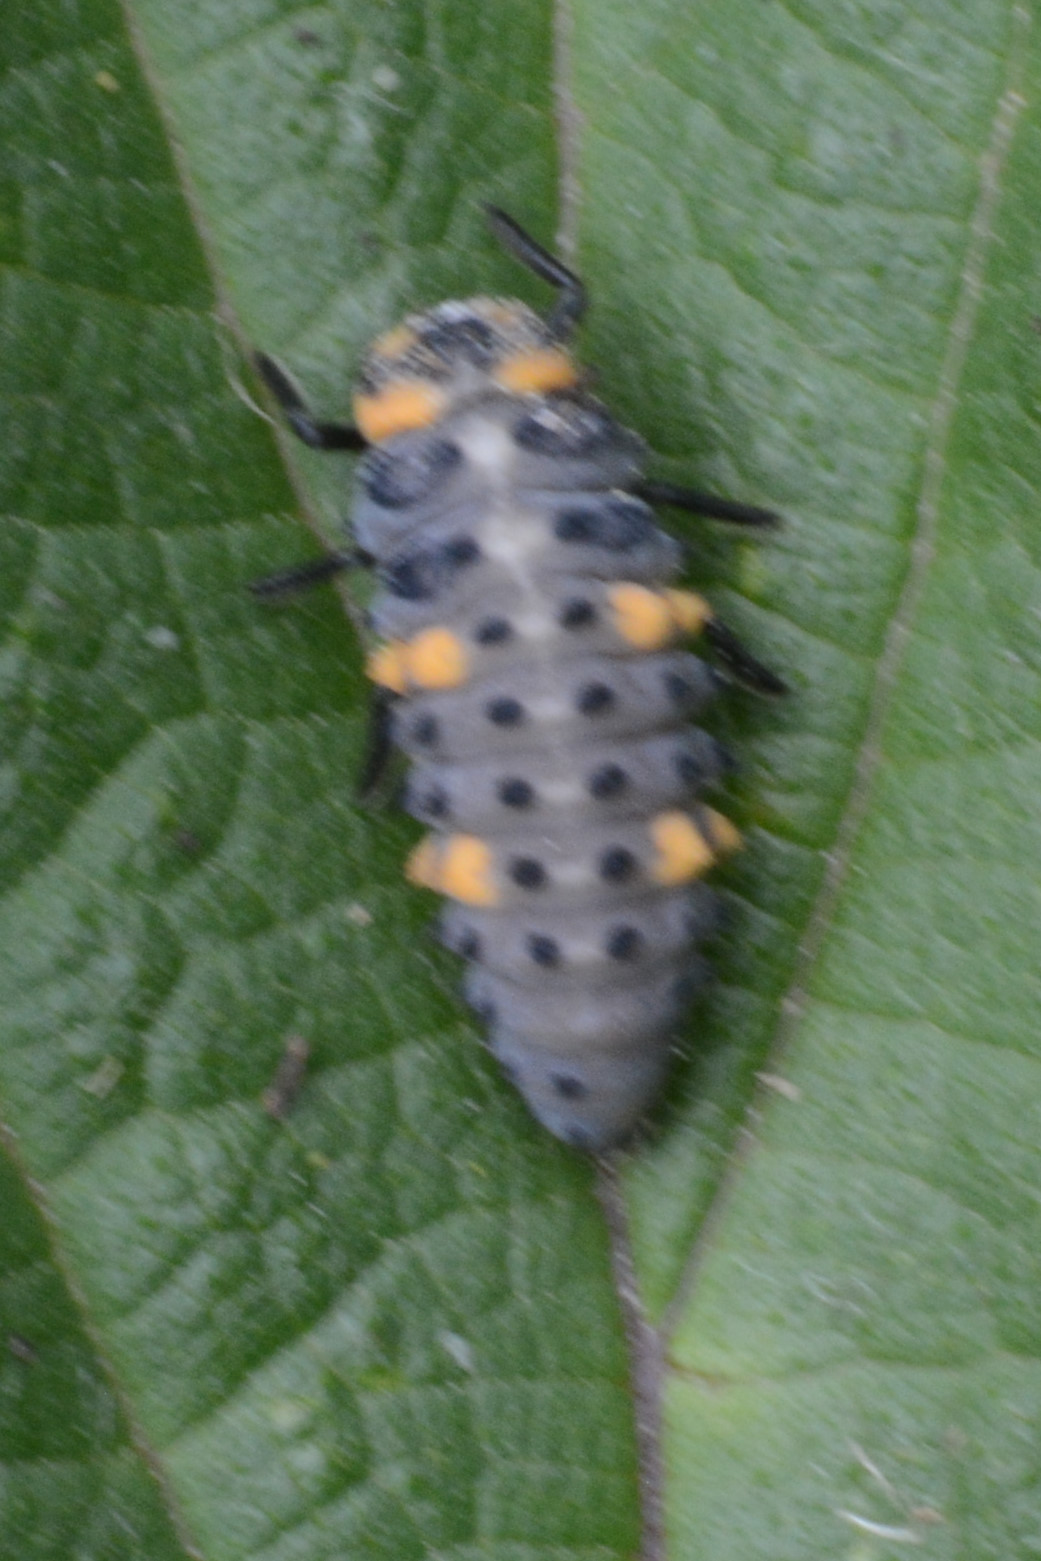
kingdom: Animalia
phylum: Arthropoda
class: Insecta
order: Coleoptera
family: Coccinellidae
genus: Coccinella
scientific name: Coccinella septempunctata
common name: Sevenspotted lady beetle
